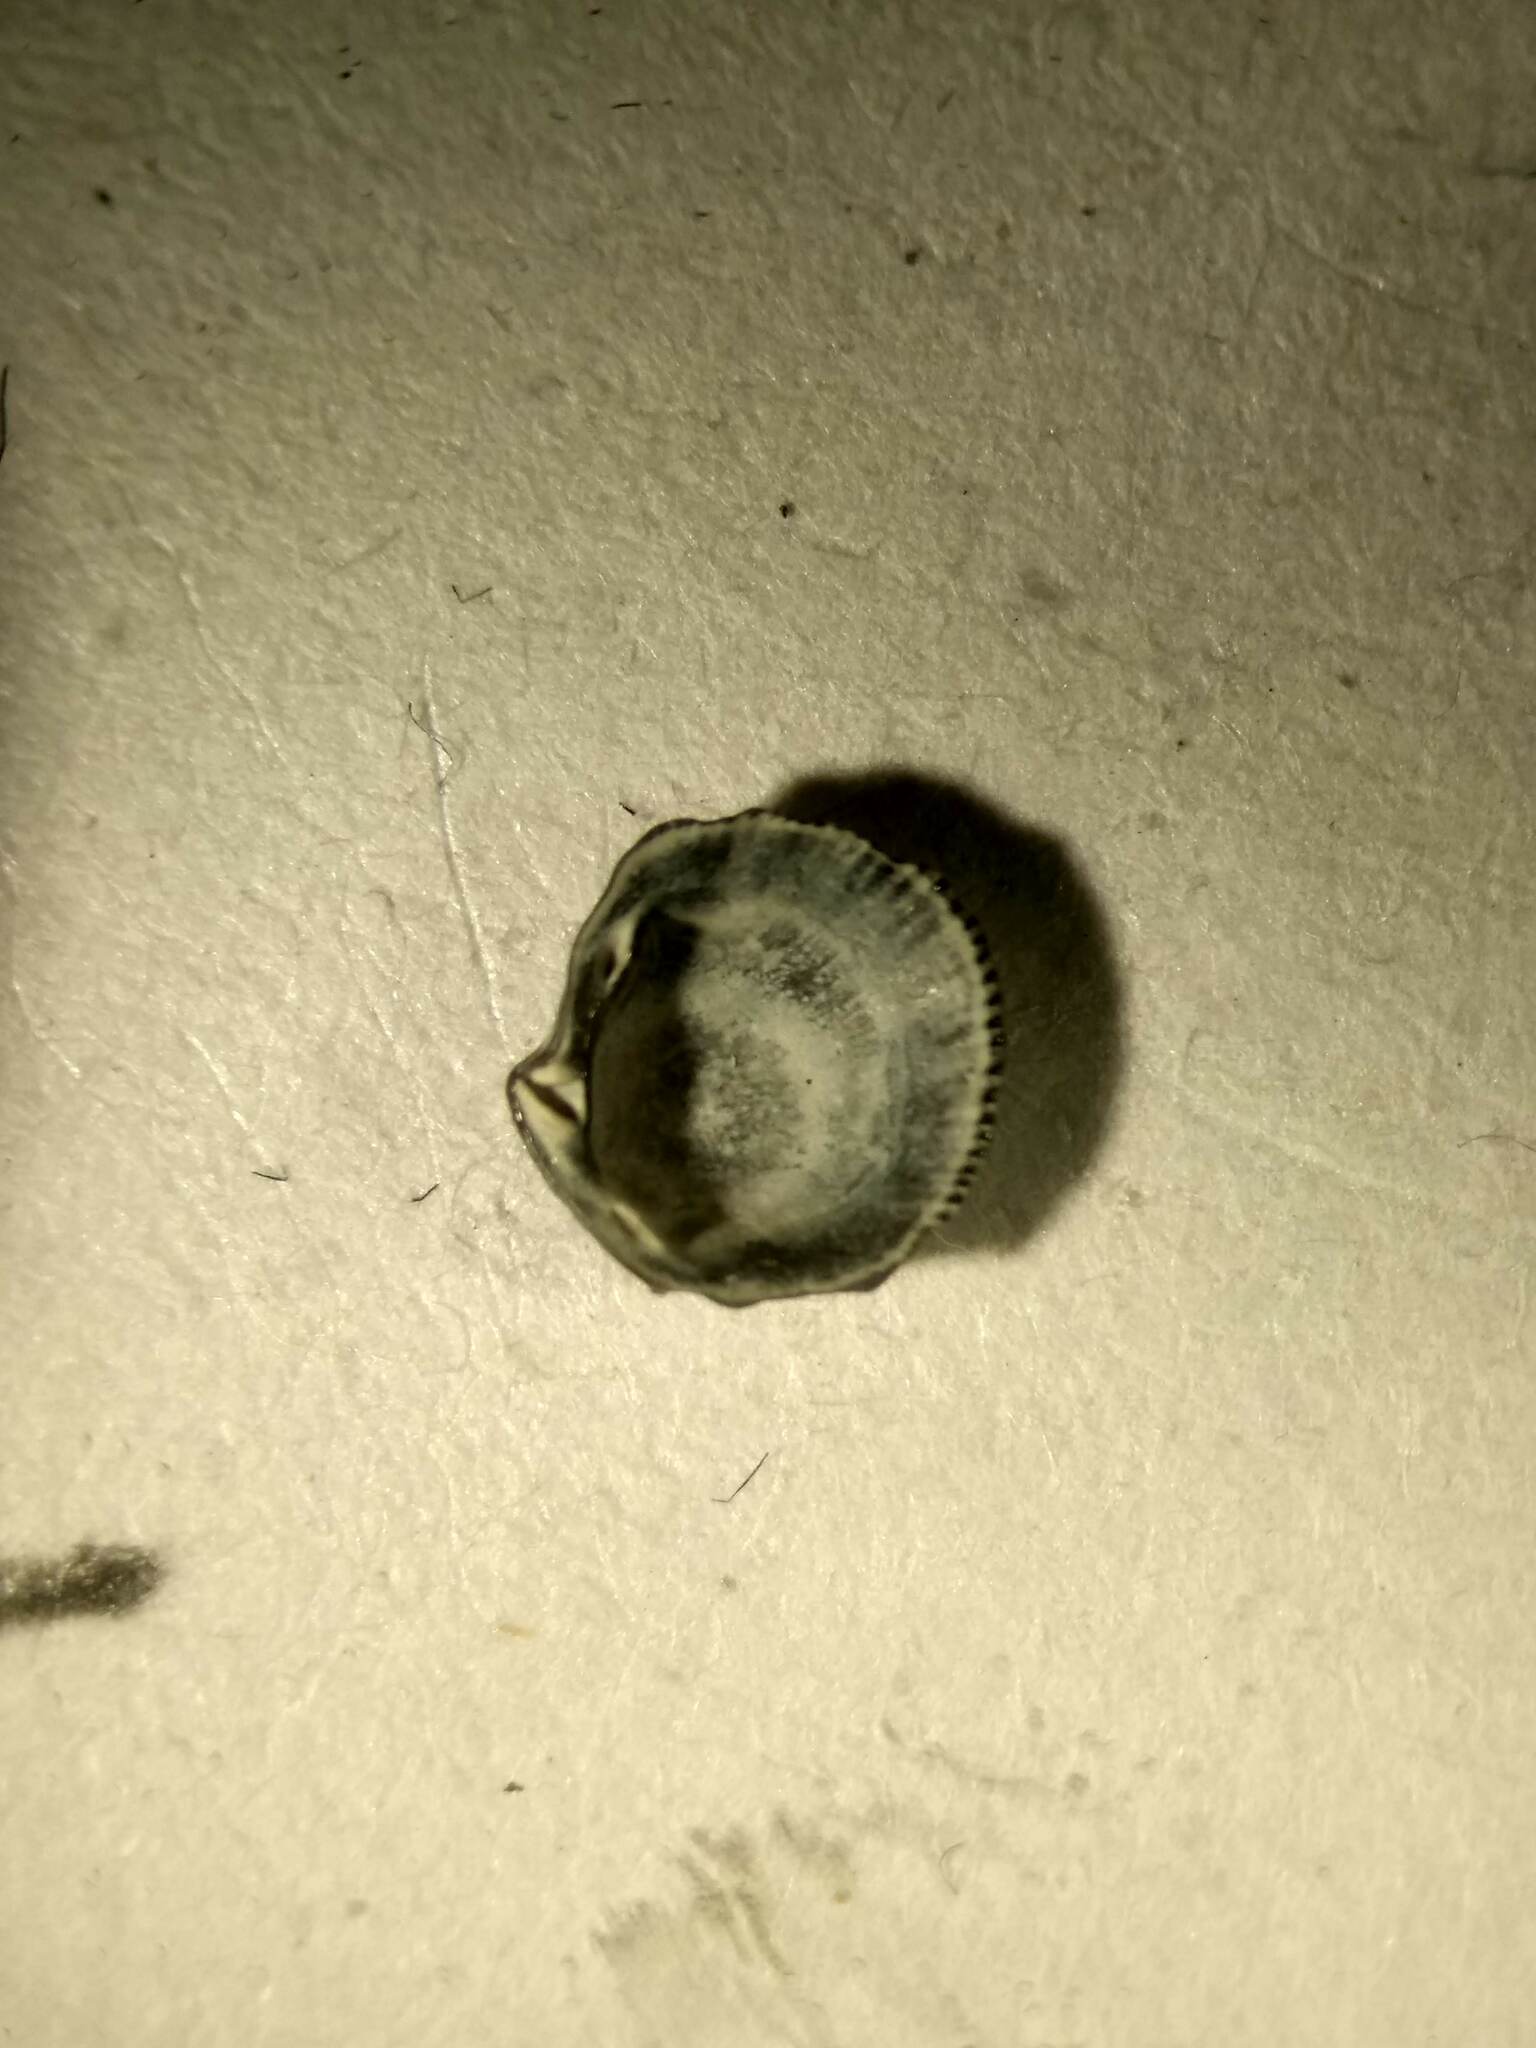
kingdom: Animalia
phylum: Mollusca
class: Bivalvia
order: Lucinida
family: Lucinidae
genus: Radiolucina
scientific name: Radiolucina amianta
